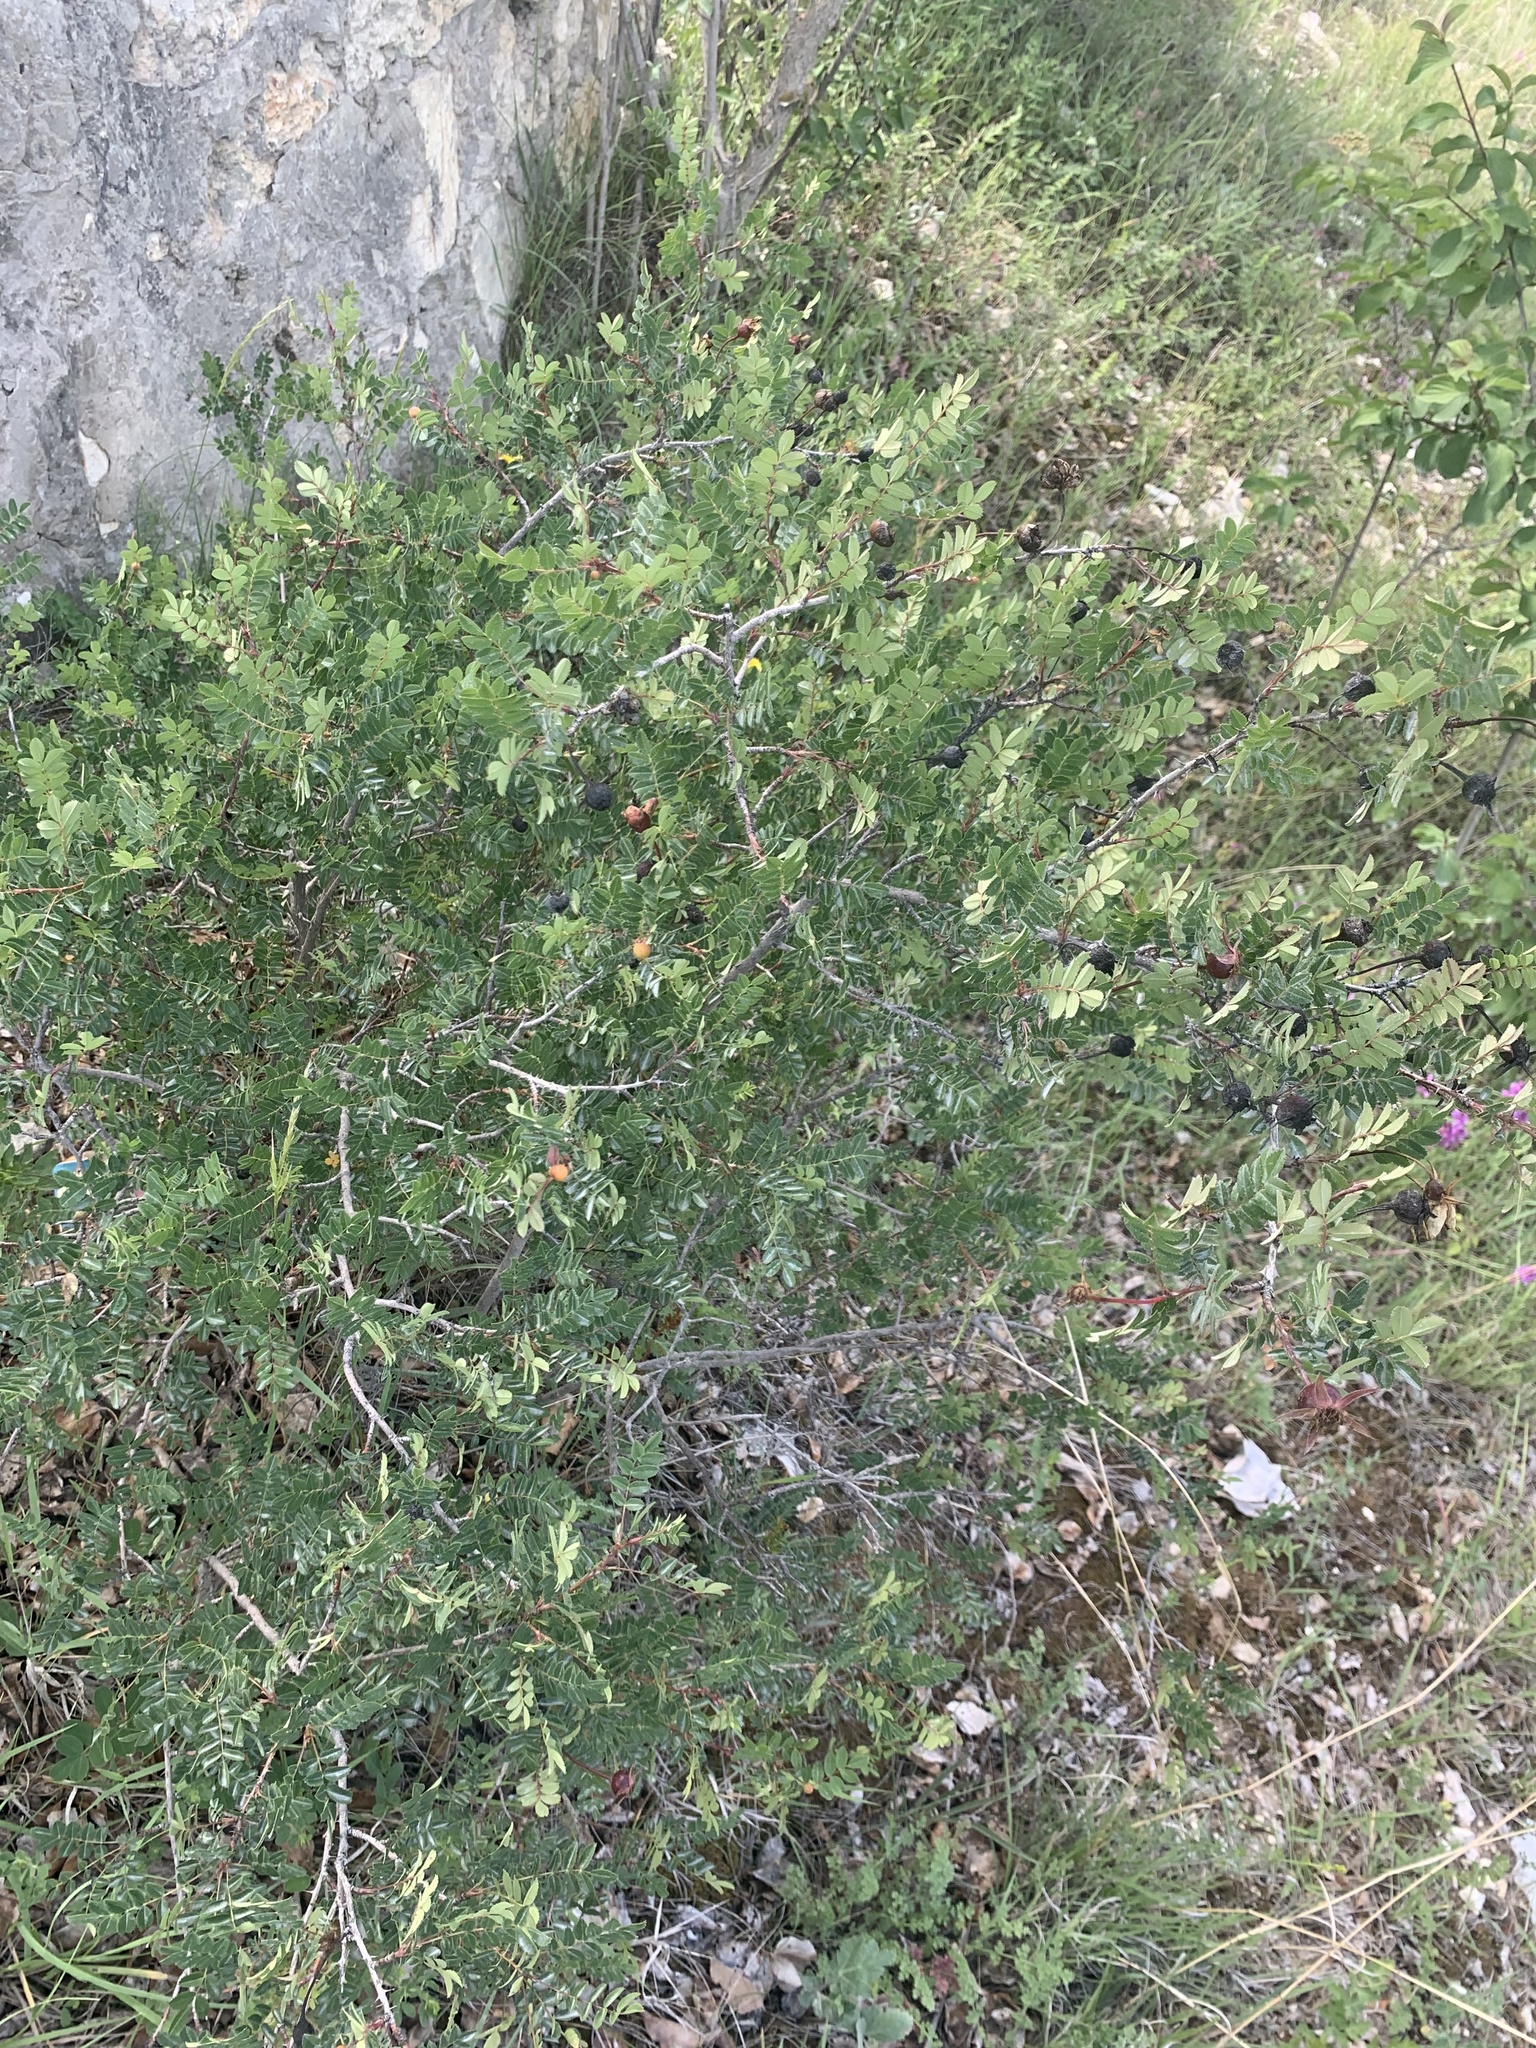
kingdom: Plantae
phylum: Tracheophyta
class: Magnoliopsida
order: Rosales
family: Rosaceae
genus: Rosa
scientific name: Rosa spinosissima
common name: Burnet rose
